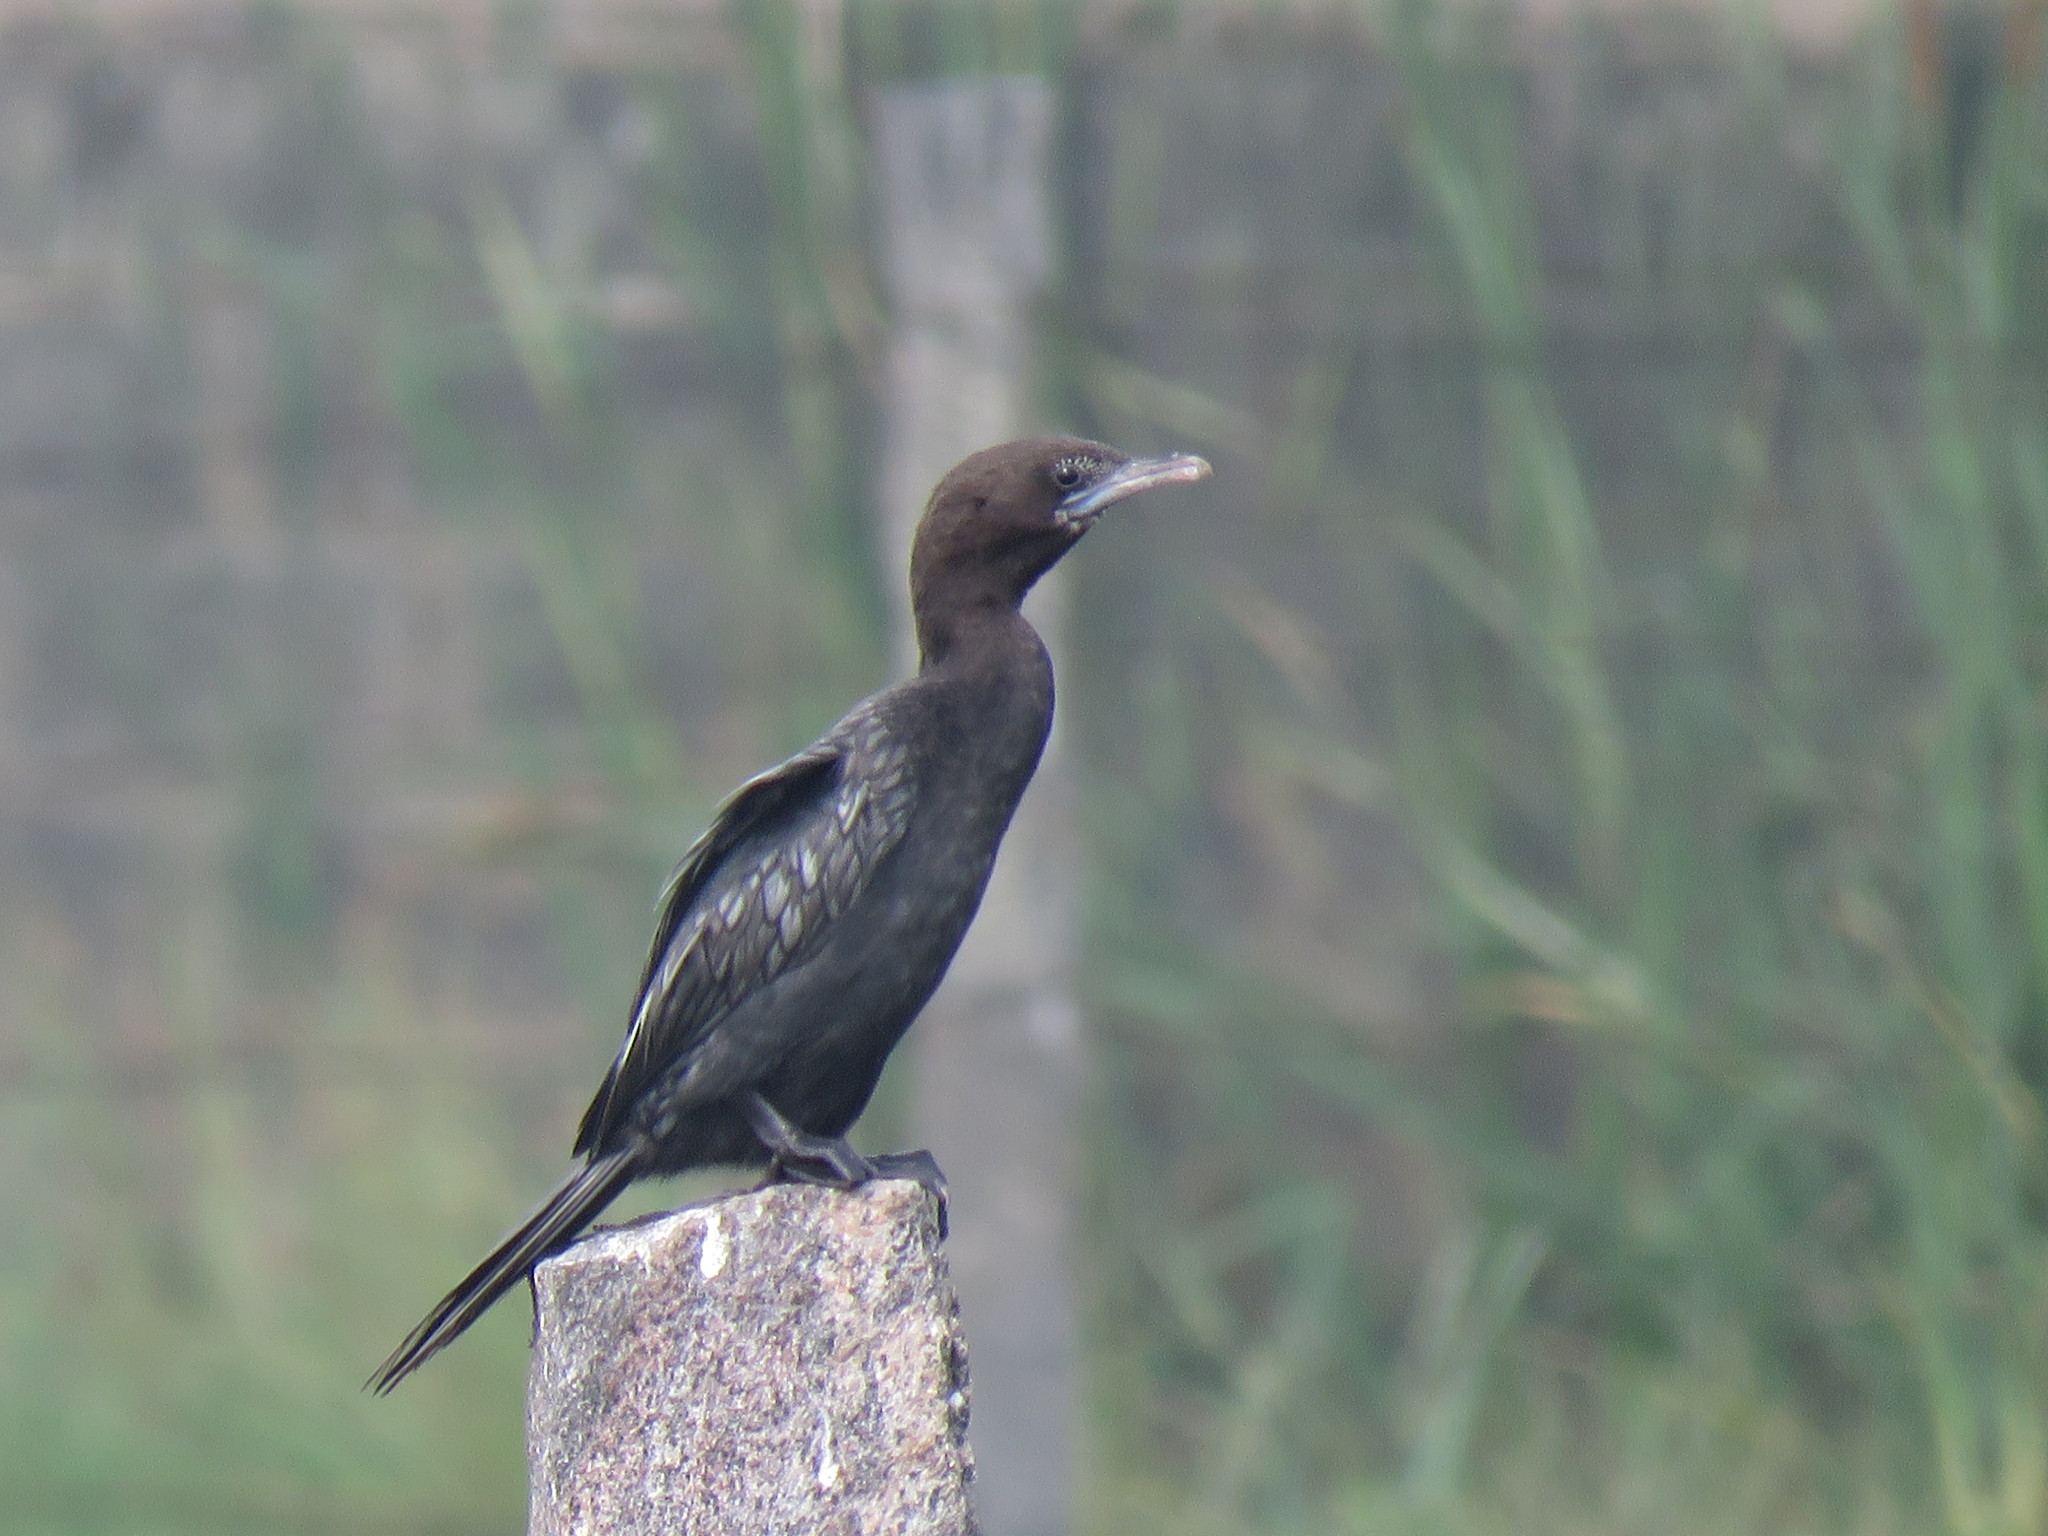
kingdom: Animalia
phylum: Chordata
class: Aves
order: Suliformes
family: Phalacrocoracidae
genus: Microcarbo
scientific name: Microcarbo niger
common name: Little cormorant
